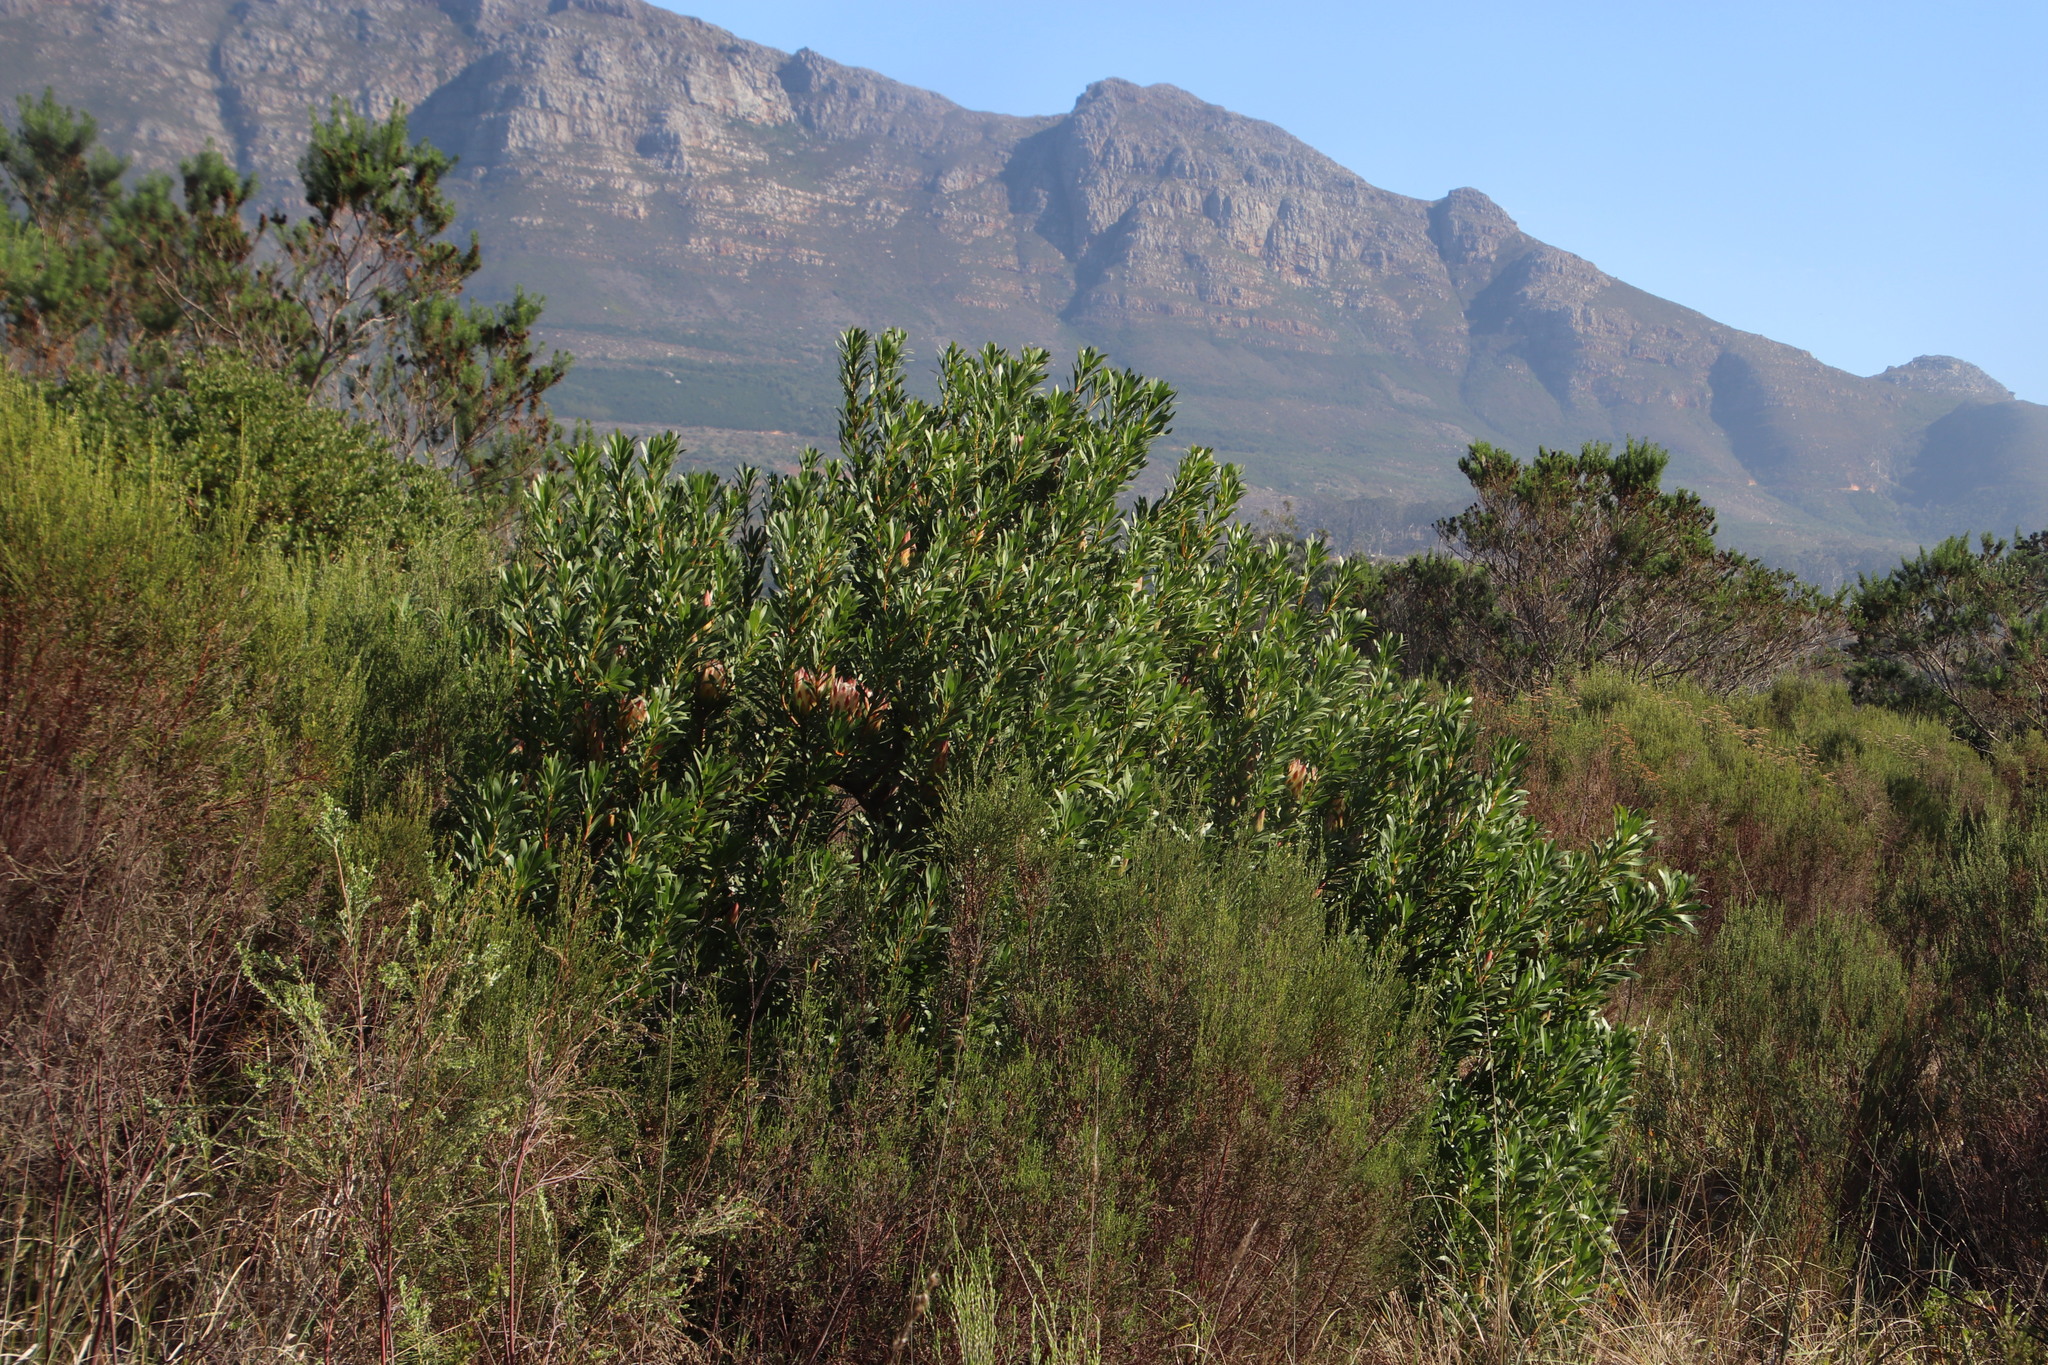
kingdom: Plantae
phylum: Tracheophyta
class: Magnoliopsida
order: Proteales
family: Proteaceae
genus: Protea
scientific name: Protea repens
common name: Sugarbush
